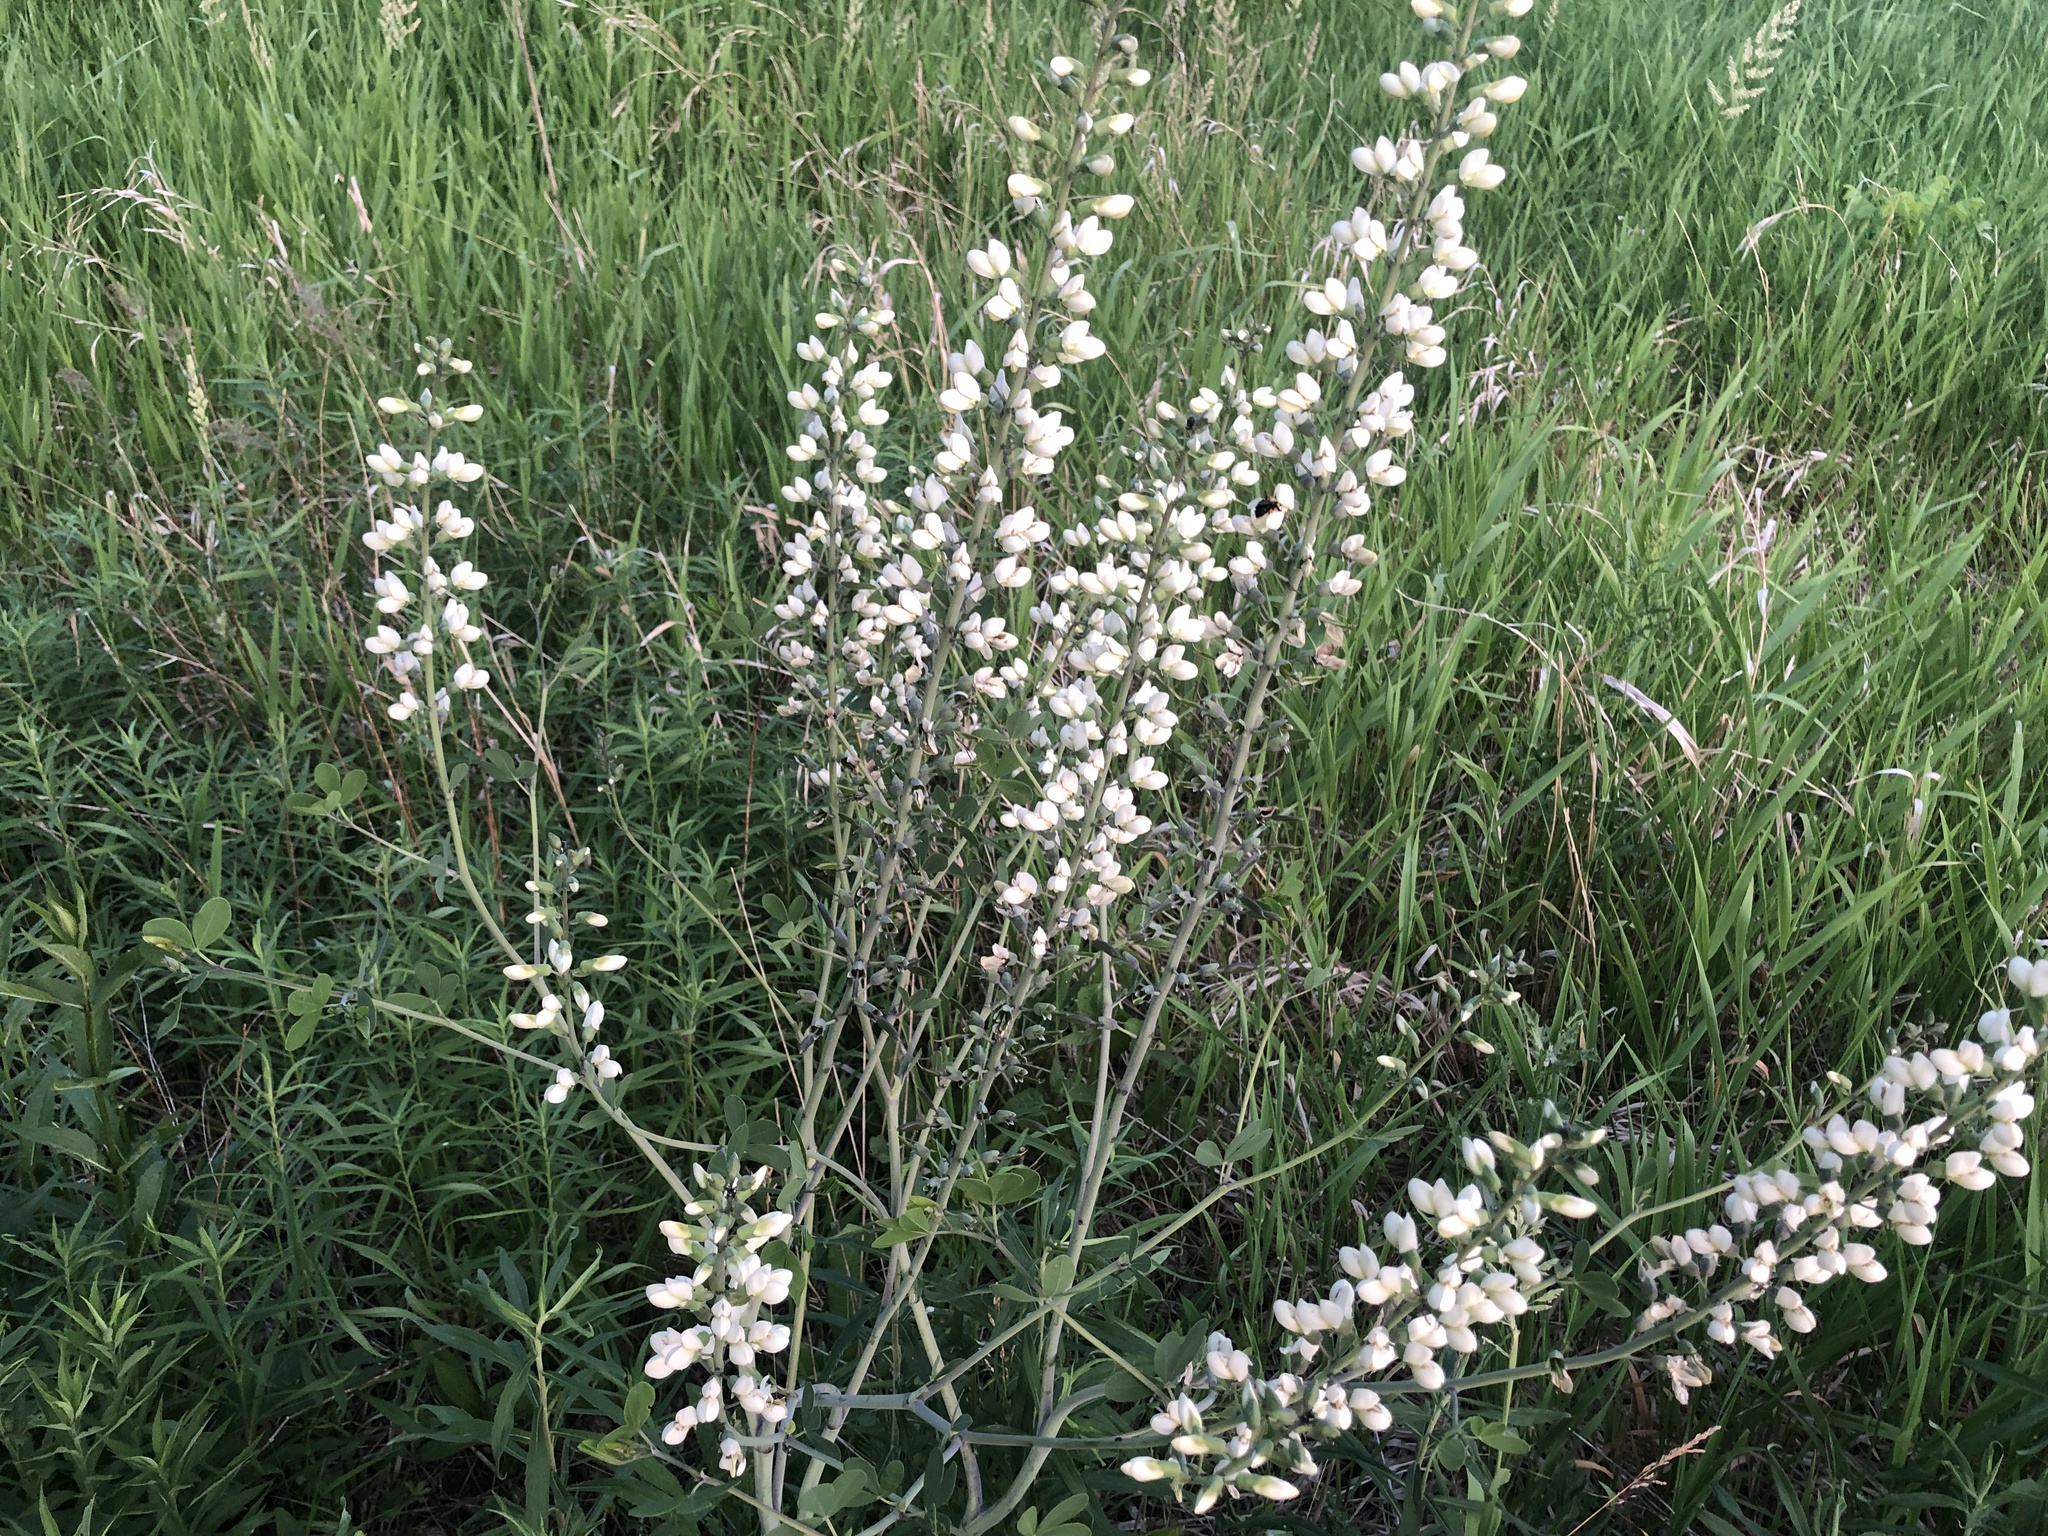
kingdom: Plantae
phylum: Tracheophyta
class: Magnoliopsida
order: Fabales
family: Fabaceae
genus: Baptisia
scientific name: Baptisia alba
